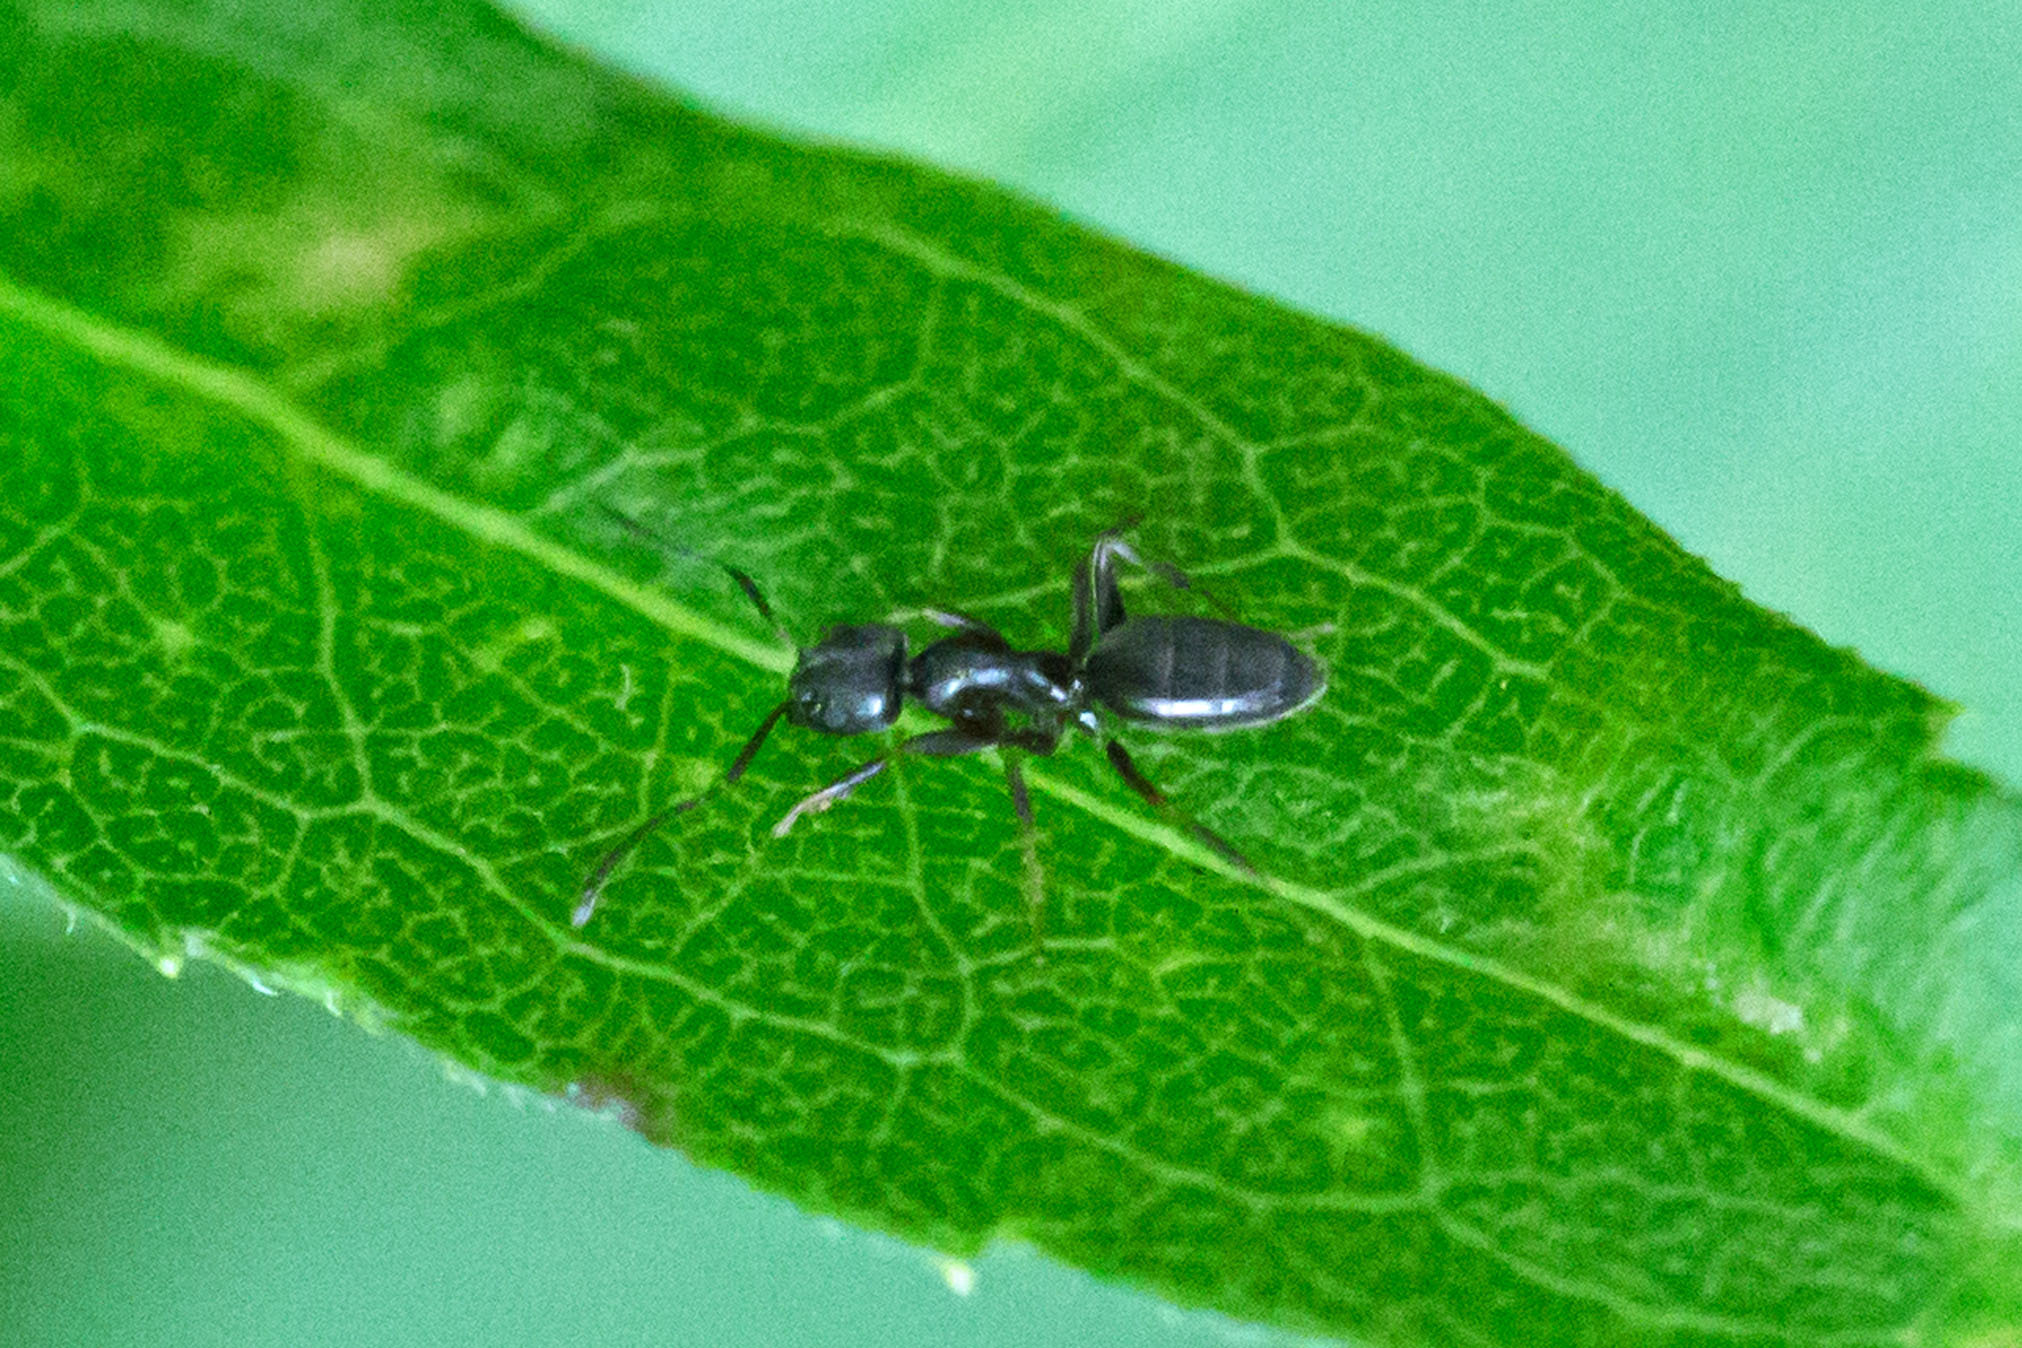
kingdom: Animalia
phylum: Arthropoda
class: Insecta
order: Hymenoptera
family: Formicidae
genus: Tapinoma
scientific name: Tapinoma sessile
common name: Odorous house ant
